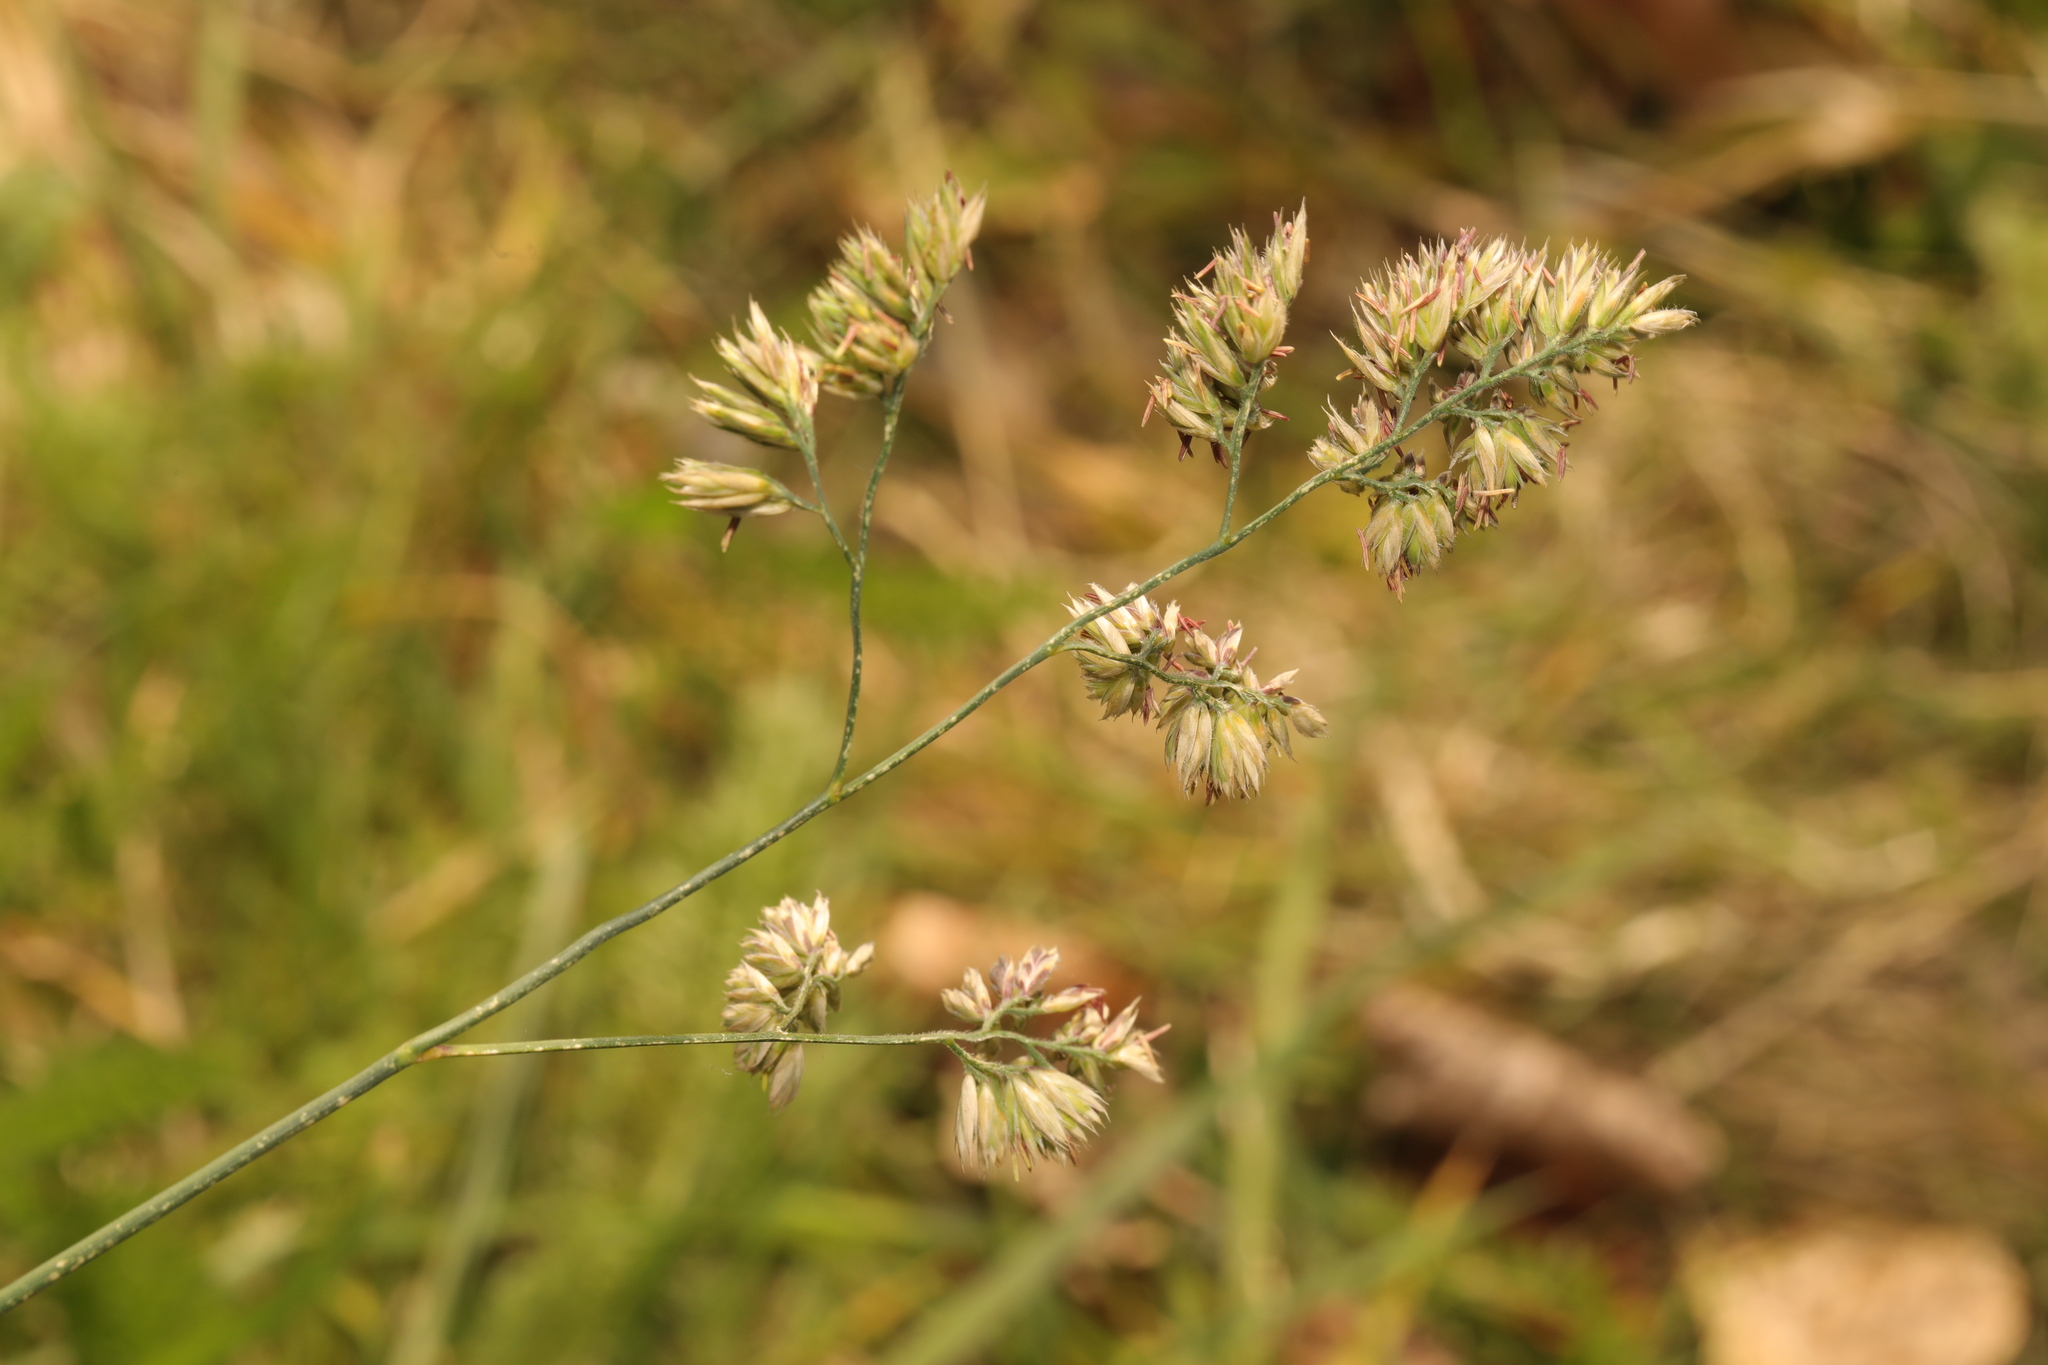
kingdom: Plantae
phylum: Tracheophyta
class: Liliopsida
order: Poales
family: Poaceae
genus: Dactylis
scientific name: Dactylis glomerata
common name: Orchardgrass
